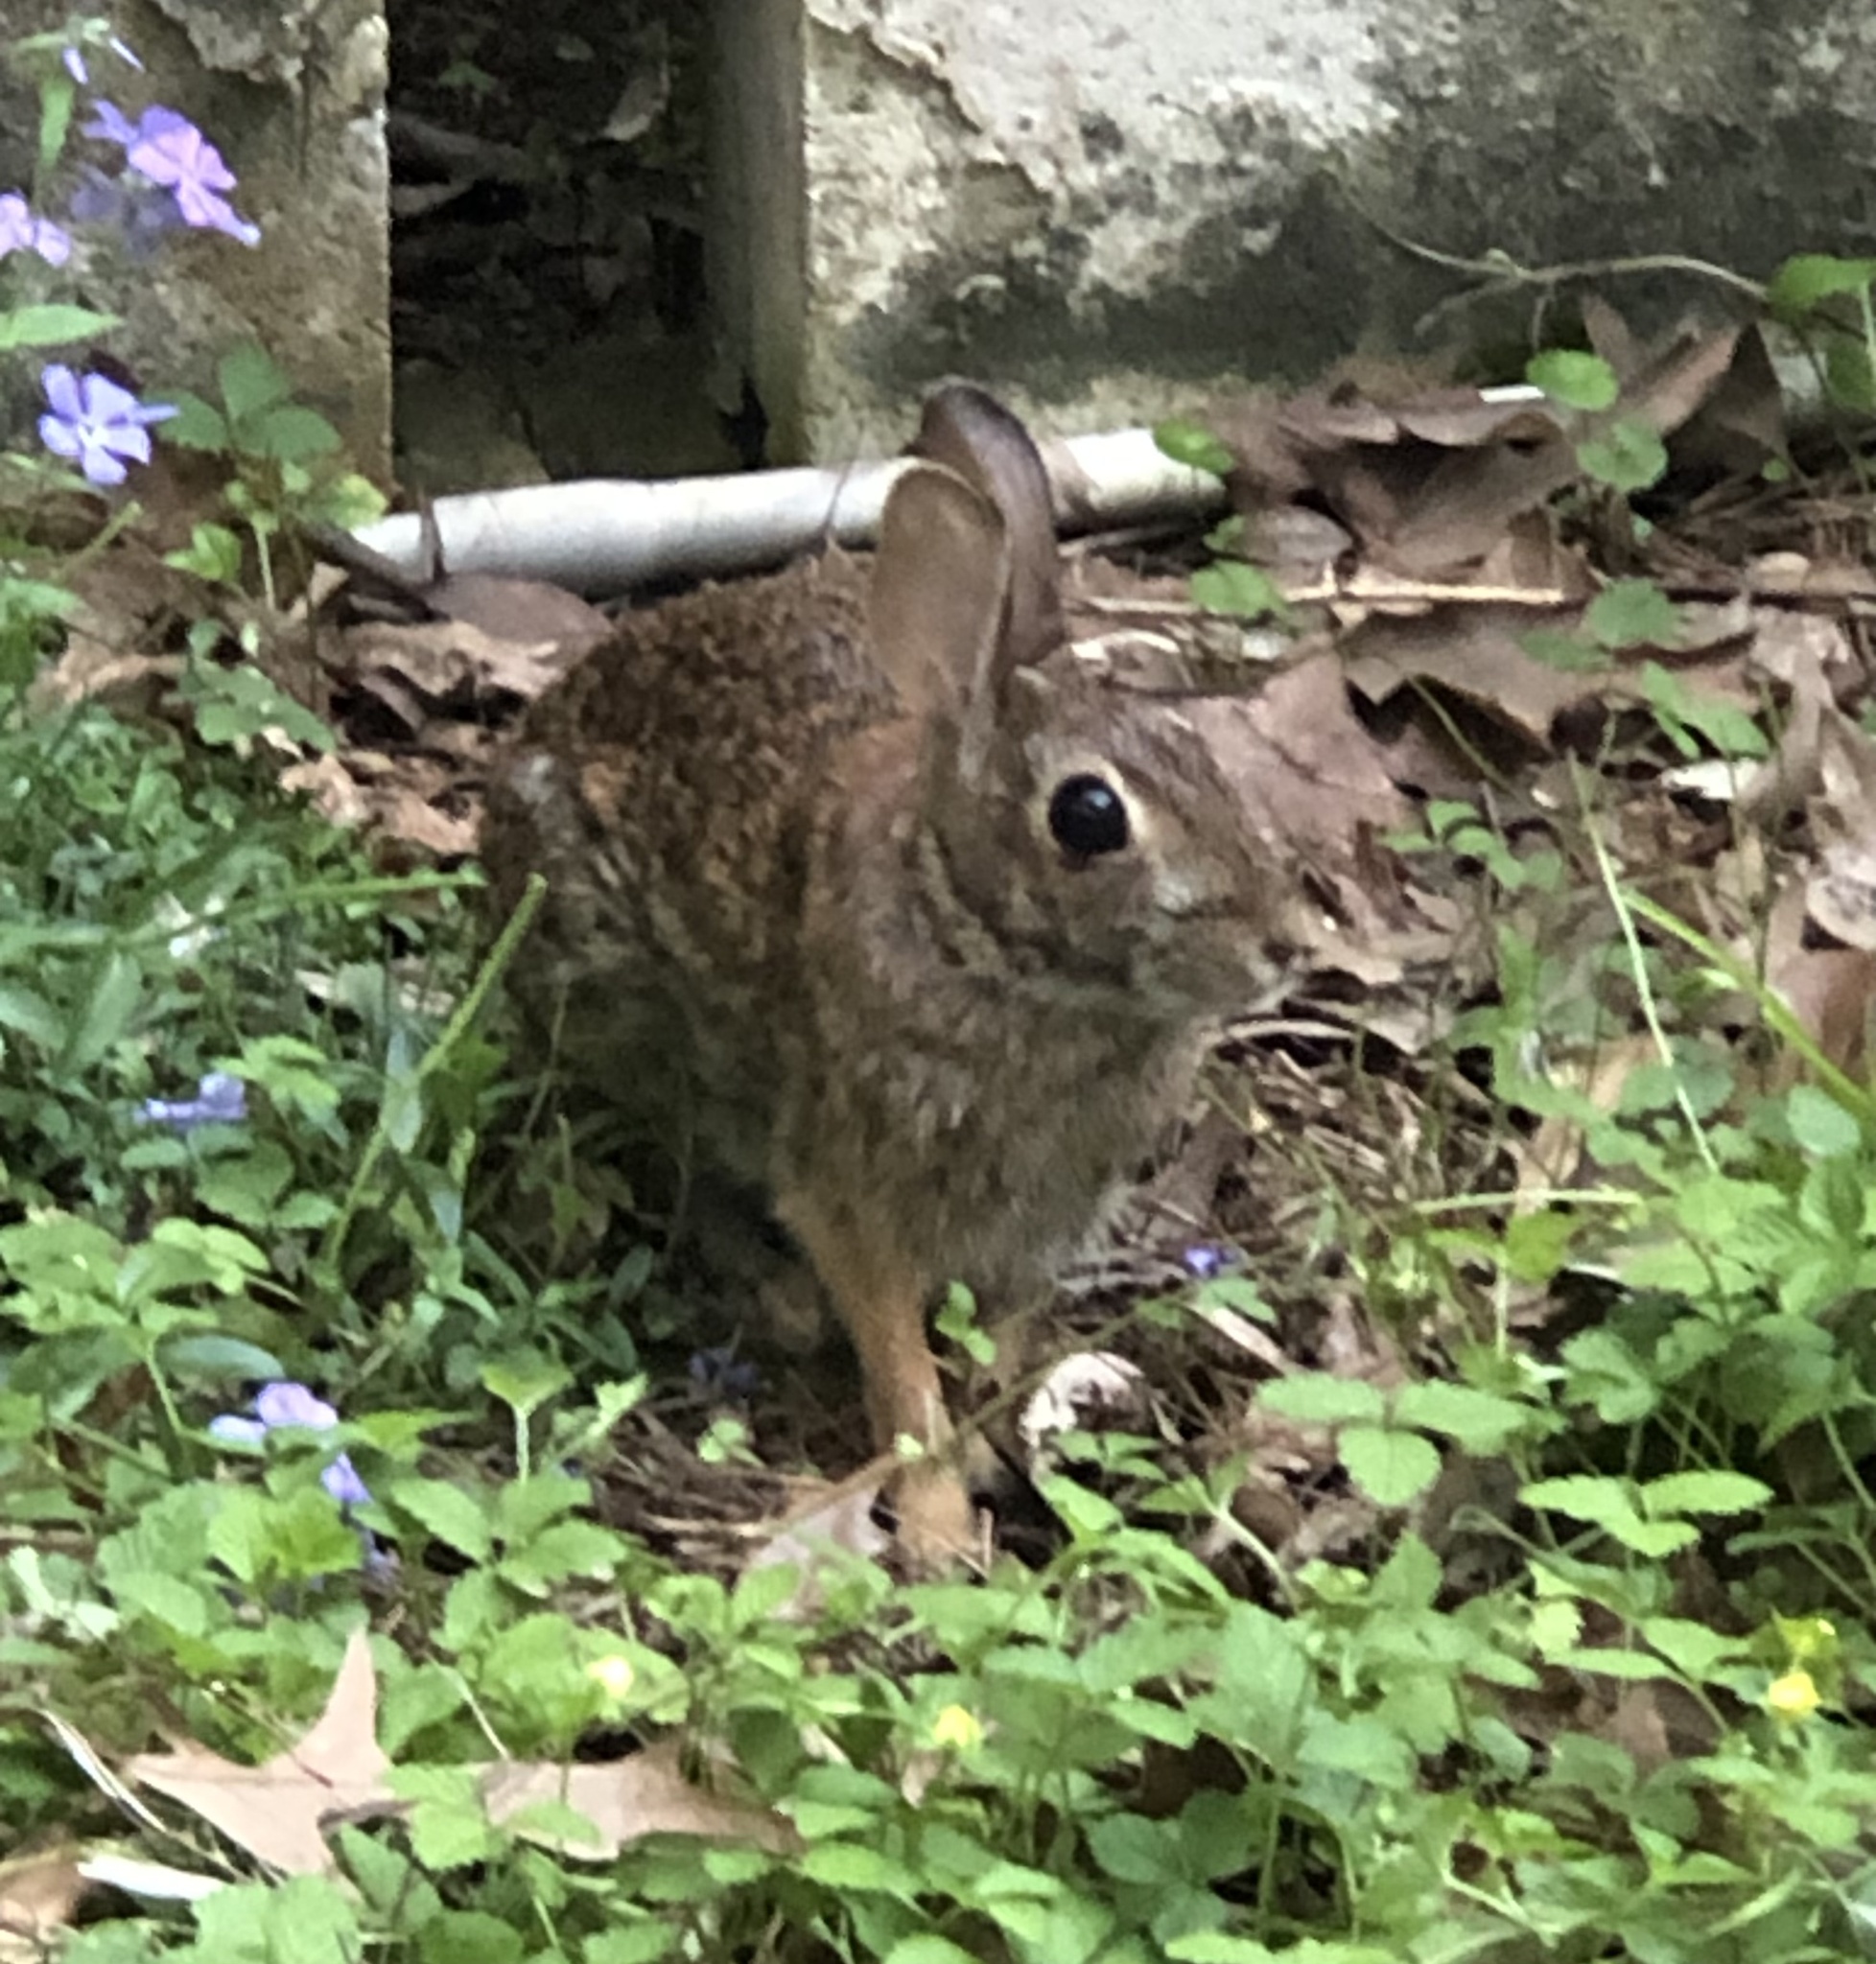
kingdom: Animalia
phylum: Chordata
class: Mammalia
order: Lagomorpha
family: Leporidae
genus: Sylvilagus
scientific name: Sylvilagus floridanus
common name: Eastern cottontail
